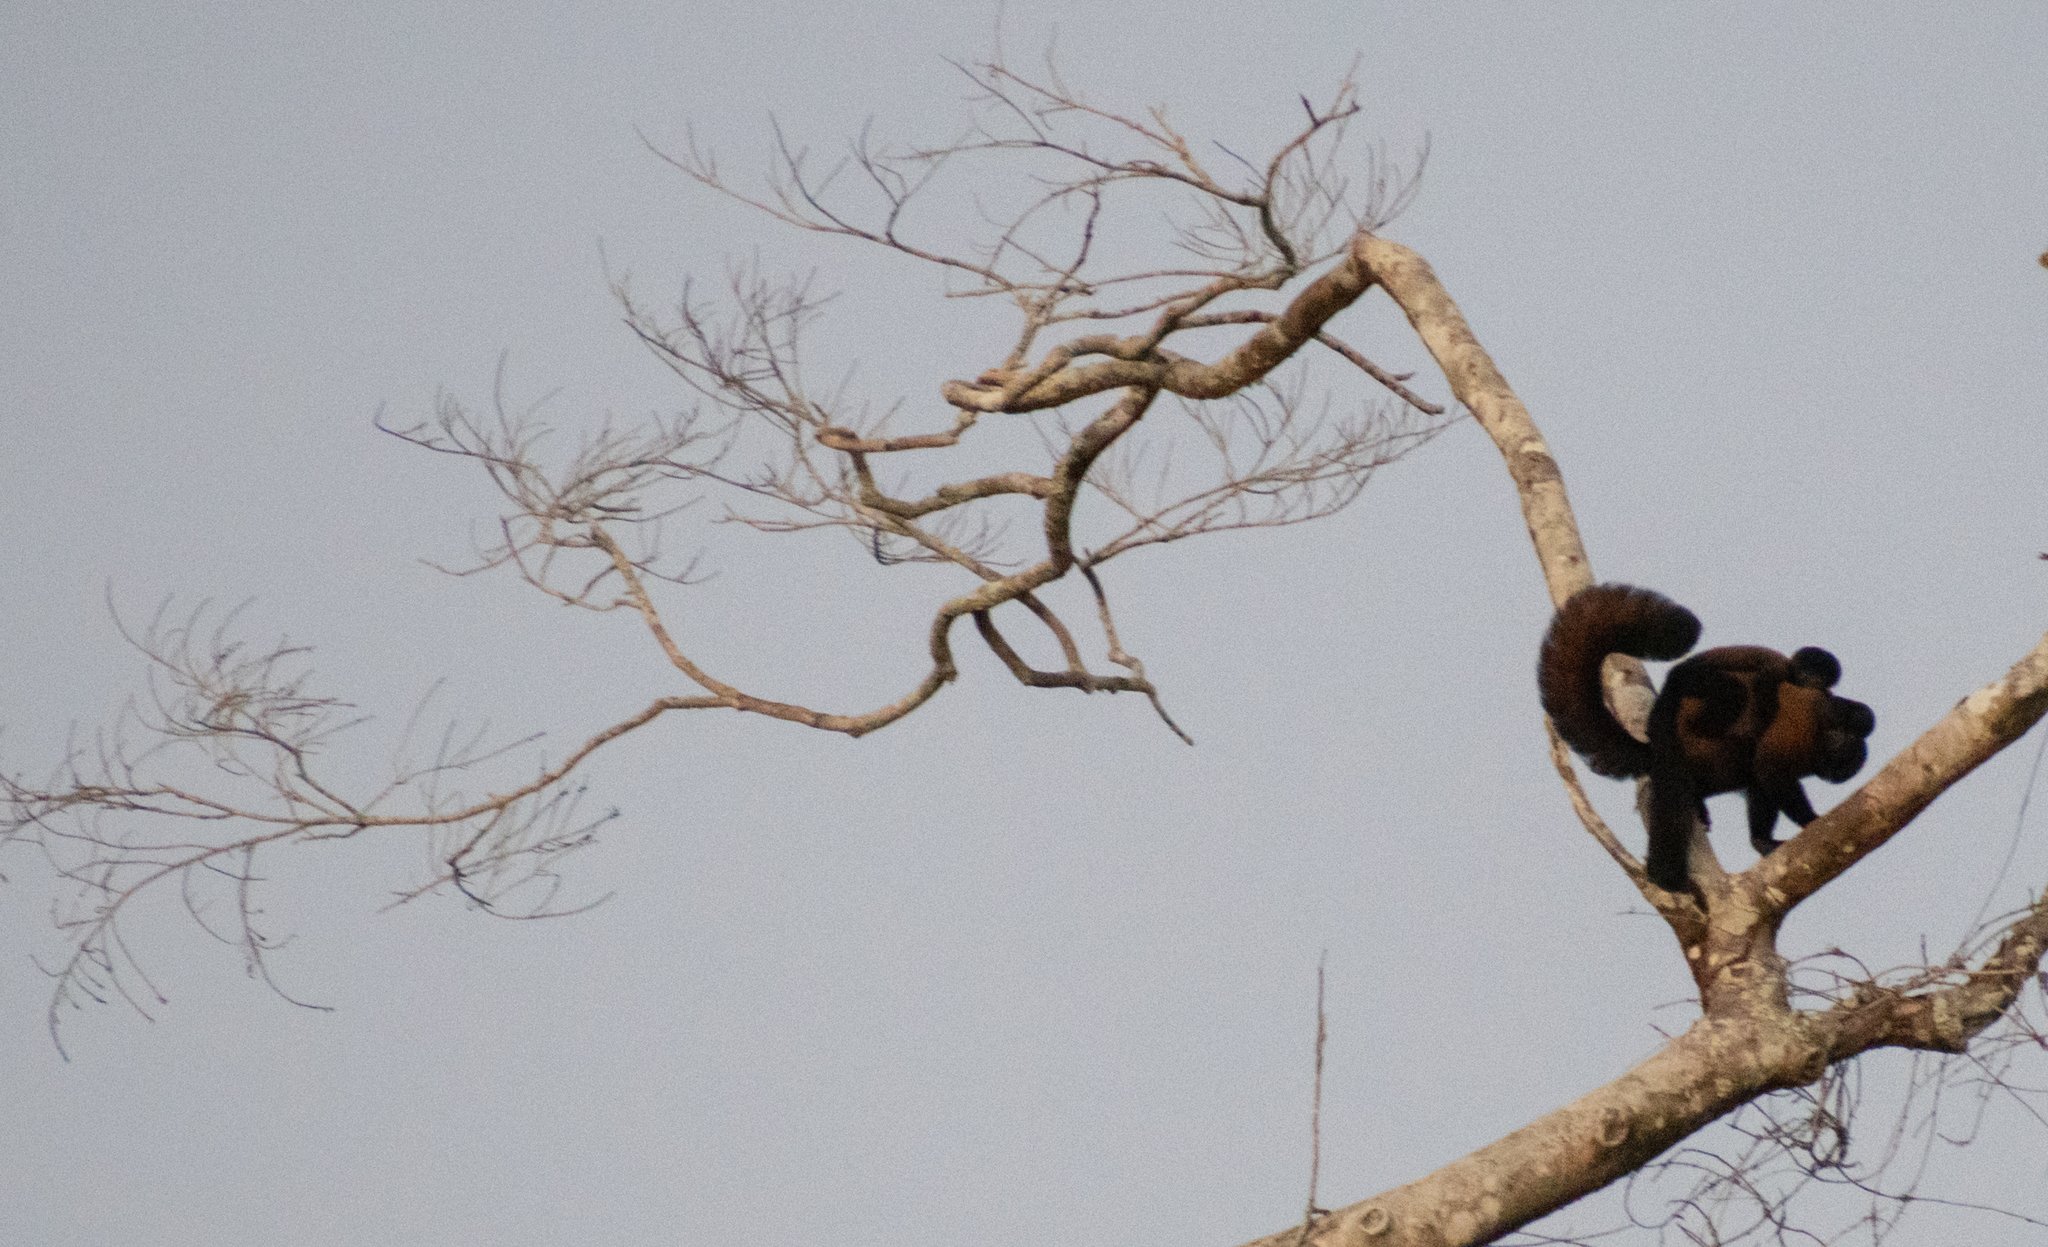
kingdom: Animalia
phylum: Chordata
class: Mammalia
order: Primates
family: Pitheciidae
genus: Chiropotes
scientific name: Chiropotes sagulatus
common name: Guianan bearded saki
